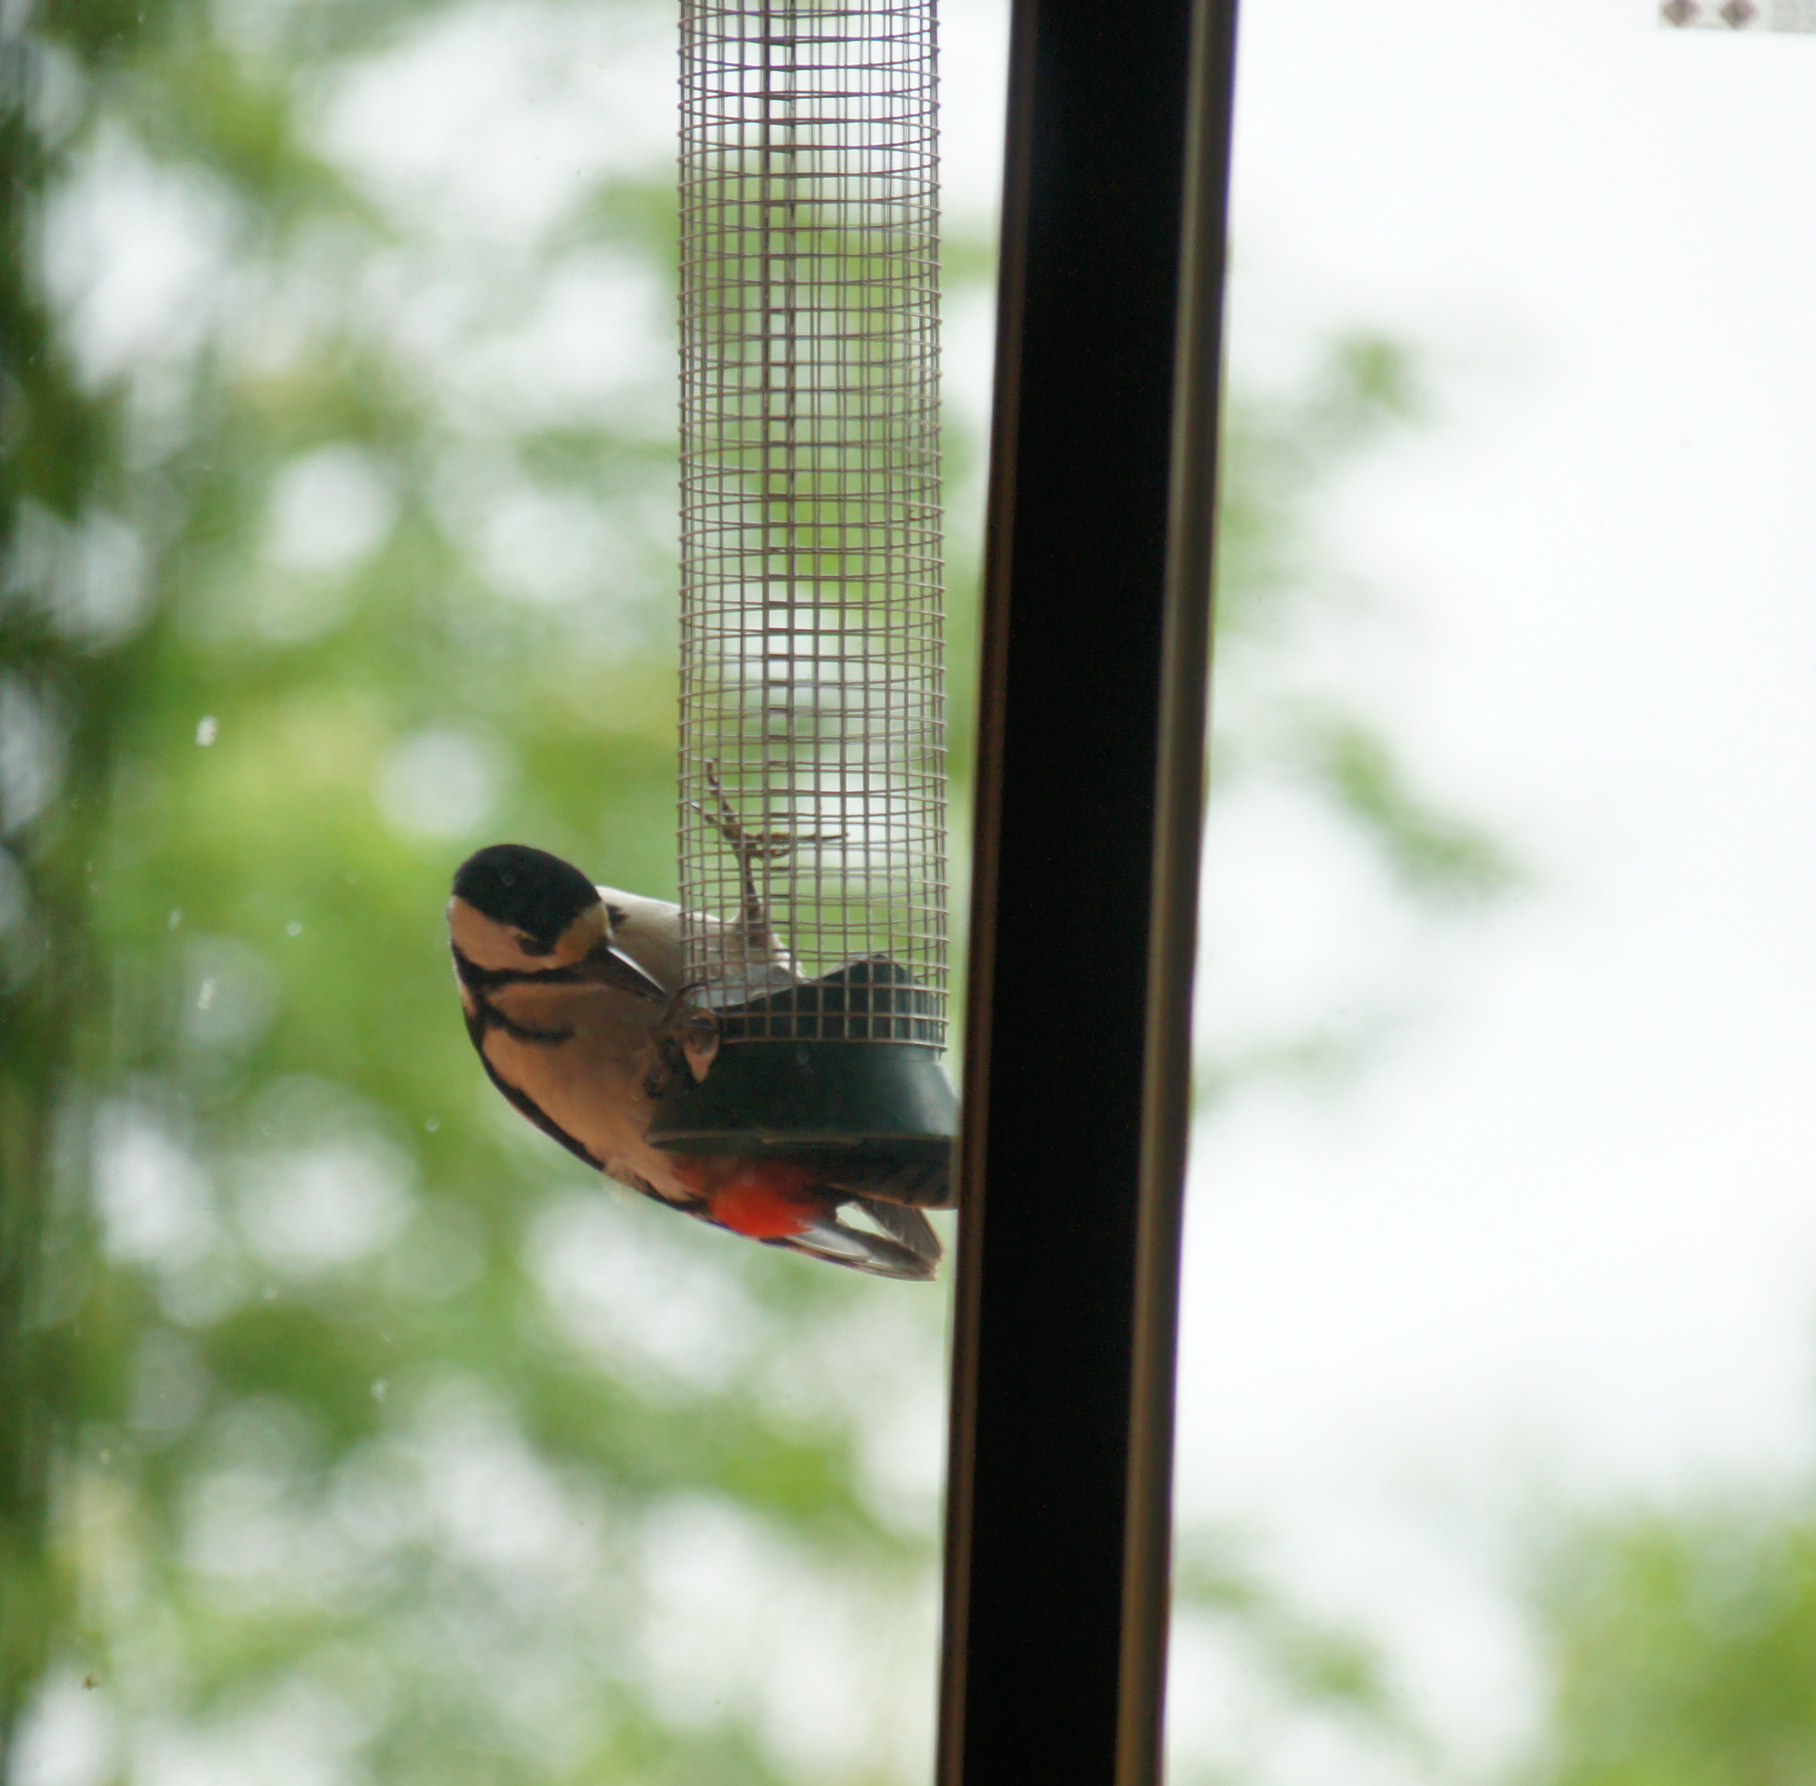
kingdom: Animalia
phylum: Chordata
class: Aves
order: Piciformes
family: Picidae
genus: Dendrocopos
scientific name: Dendrocopos major
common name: Great spotted woodpecker
